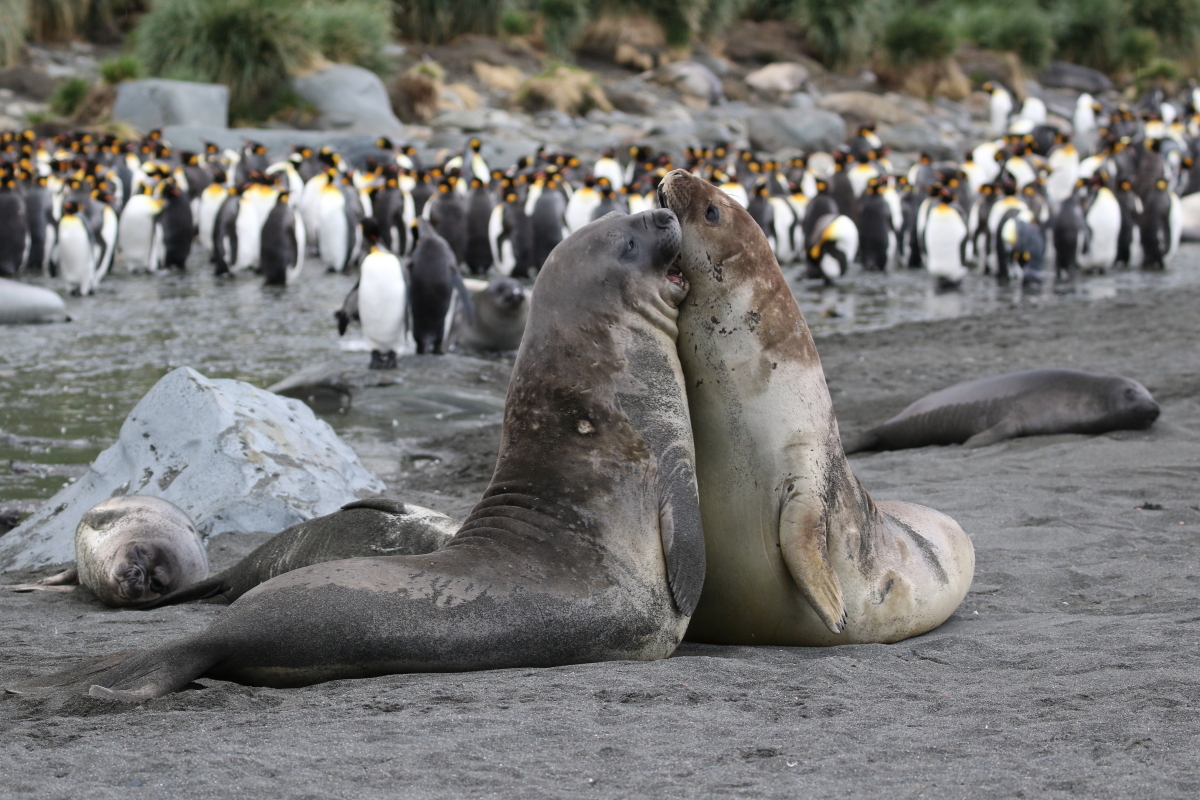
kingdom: Animalia
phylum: Chordata
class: Aves
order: Sphenisciformes
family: Spheniscidae
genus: Aptenodytes
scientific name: Aptenodytes patagonicus
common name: King penguin
